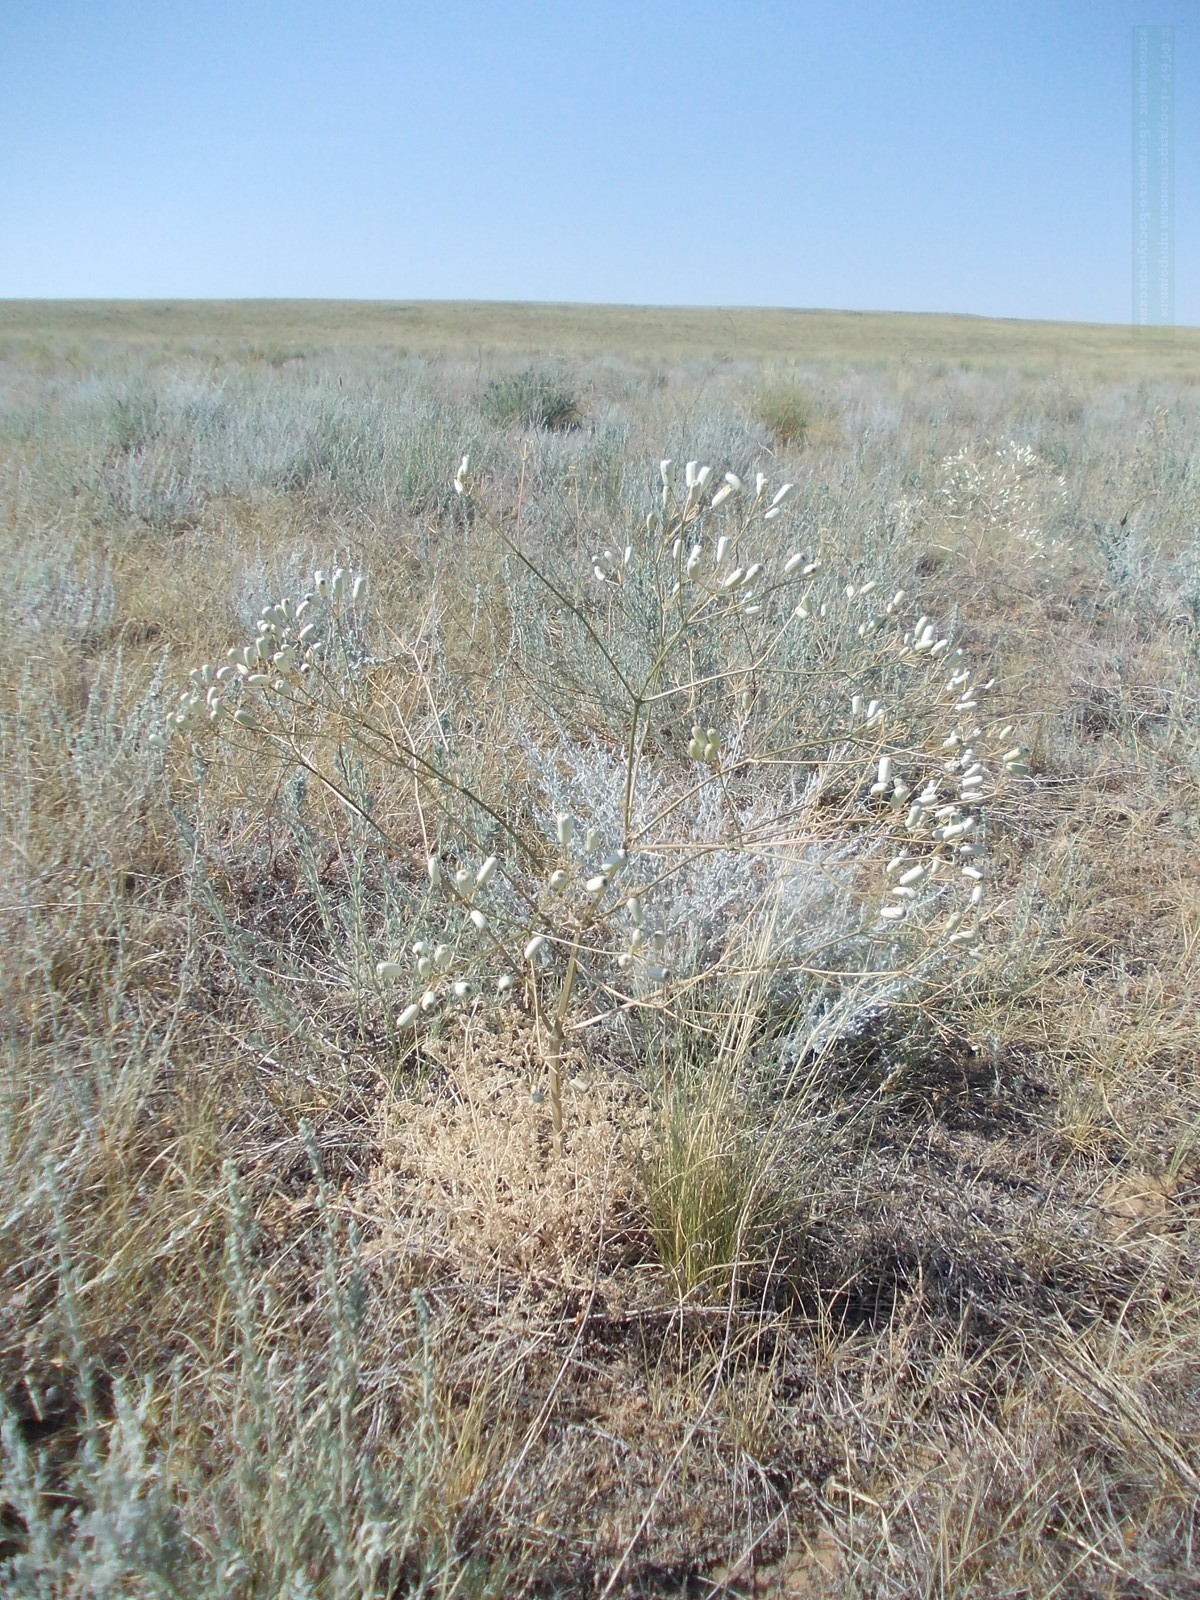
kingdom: Plantae
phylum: Tracheophyta
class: Magnoliopsida
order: Apiales
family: Apiaceae
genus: Prangos
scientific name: Prangos odontalgica
